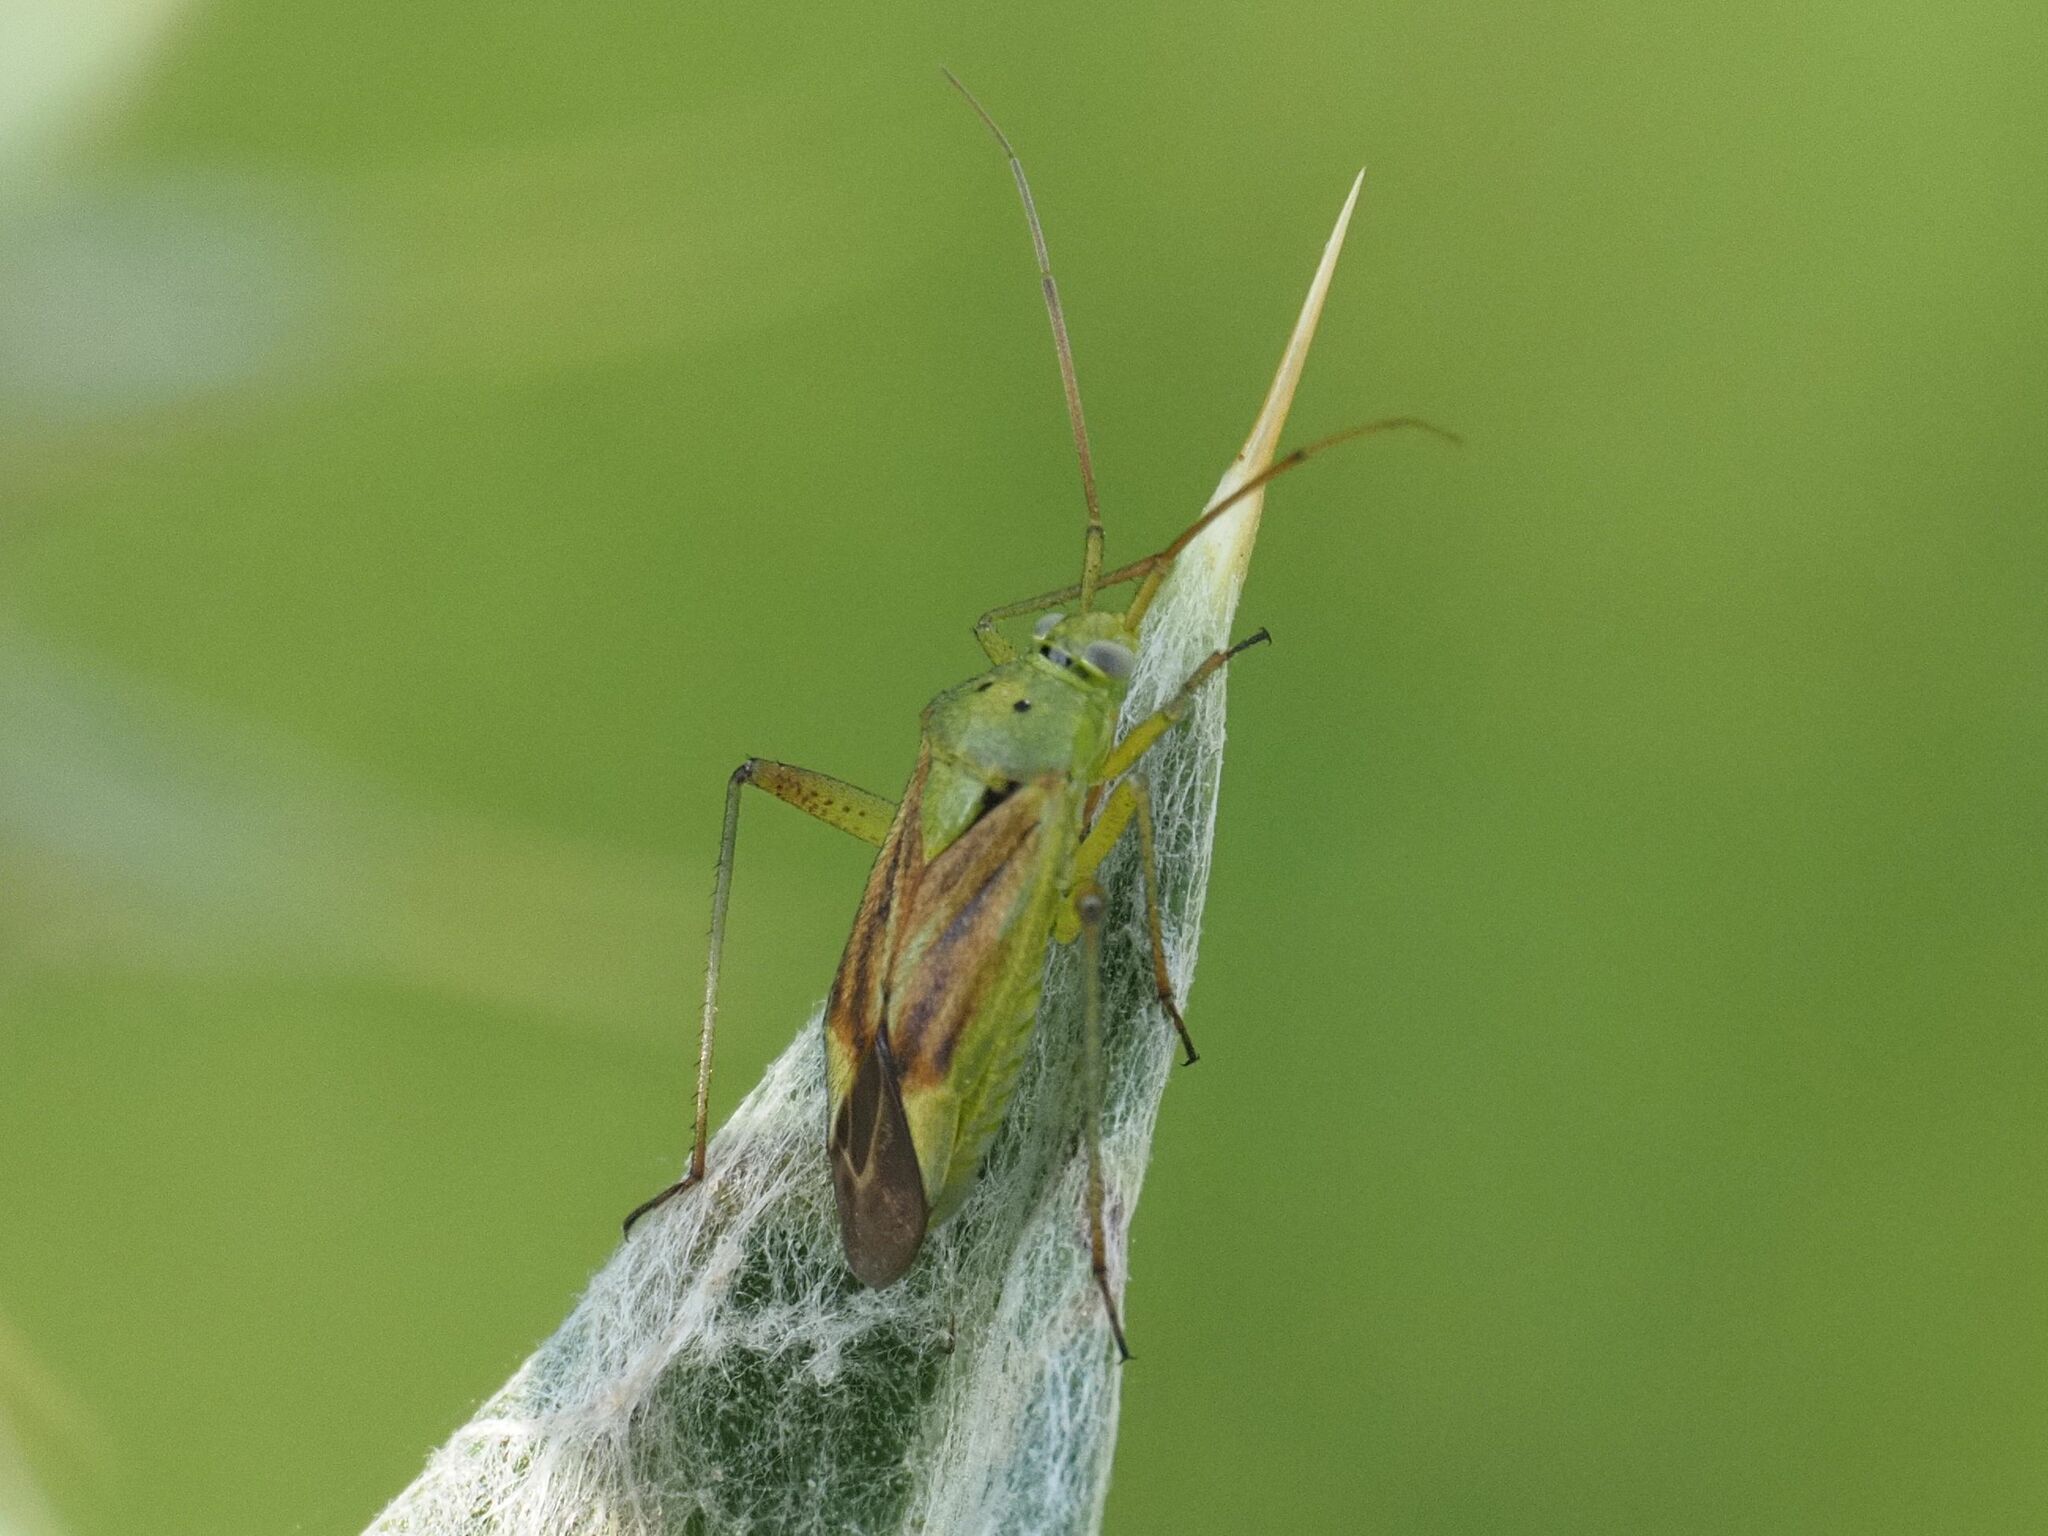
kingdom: Animalia
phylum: Arthropoda
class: Insecta
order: Hemiptera
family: Miridae
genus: Closterotomus
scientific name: Closterotomus norvegicus
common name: Plant bug
